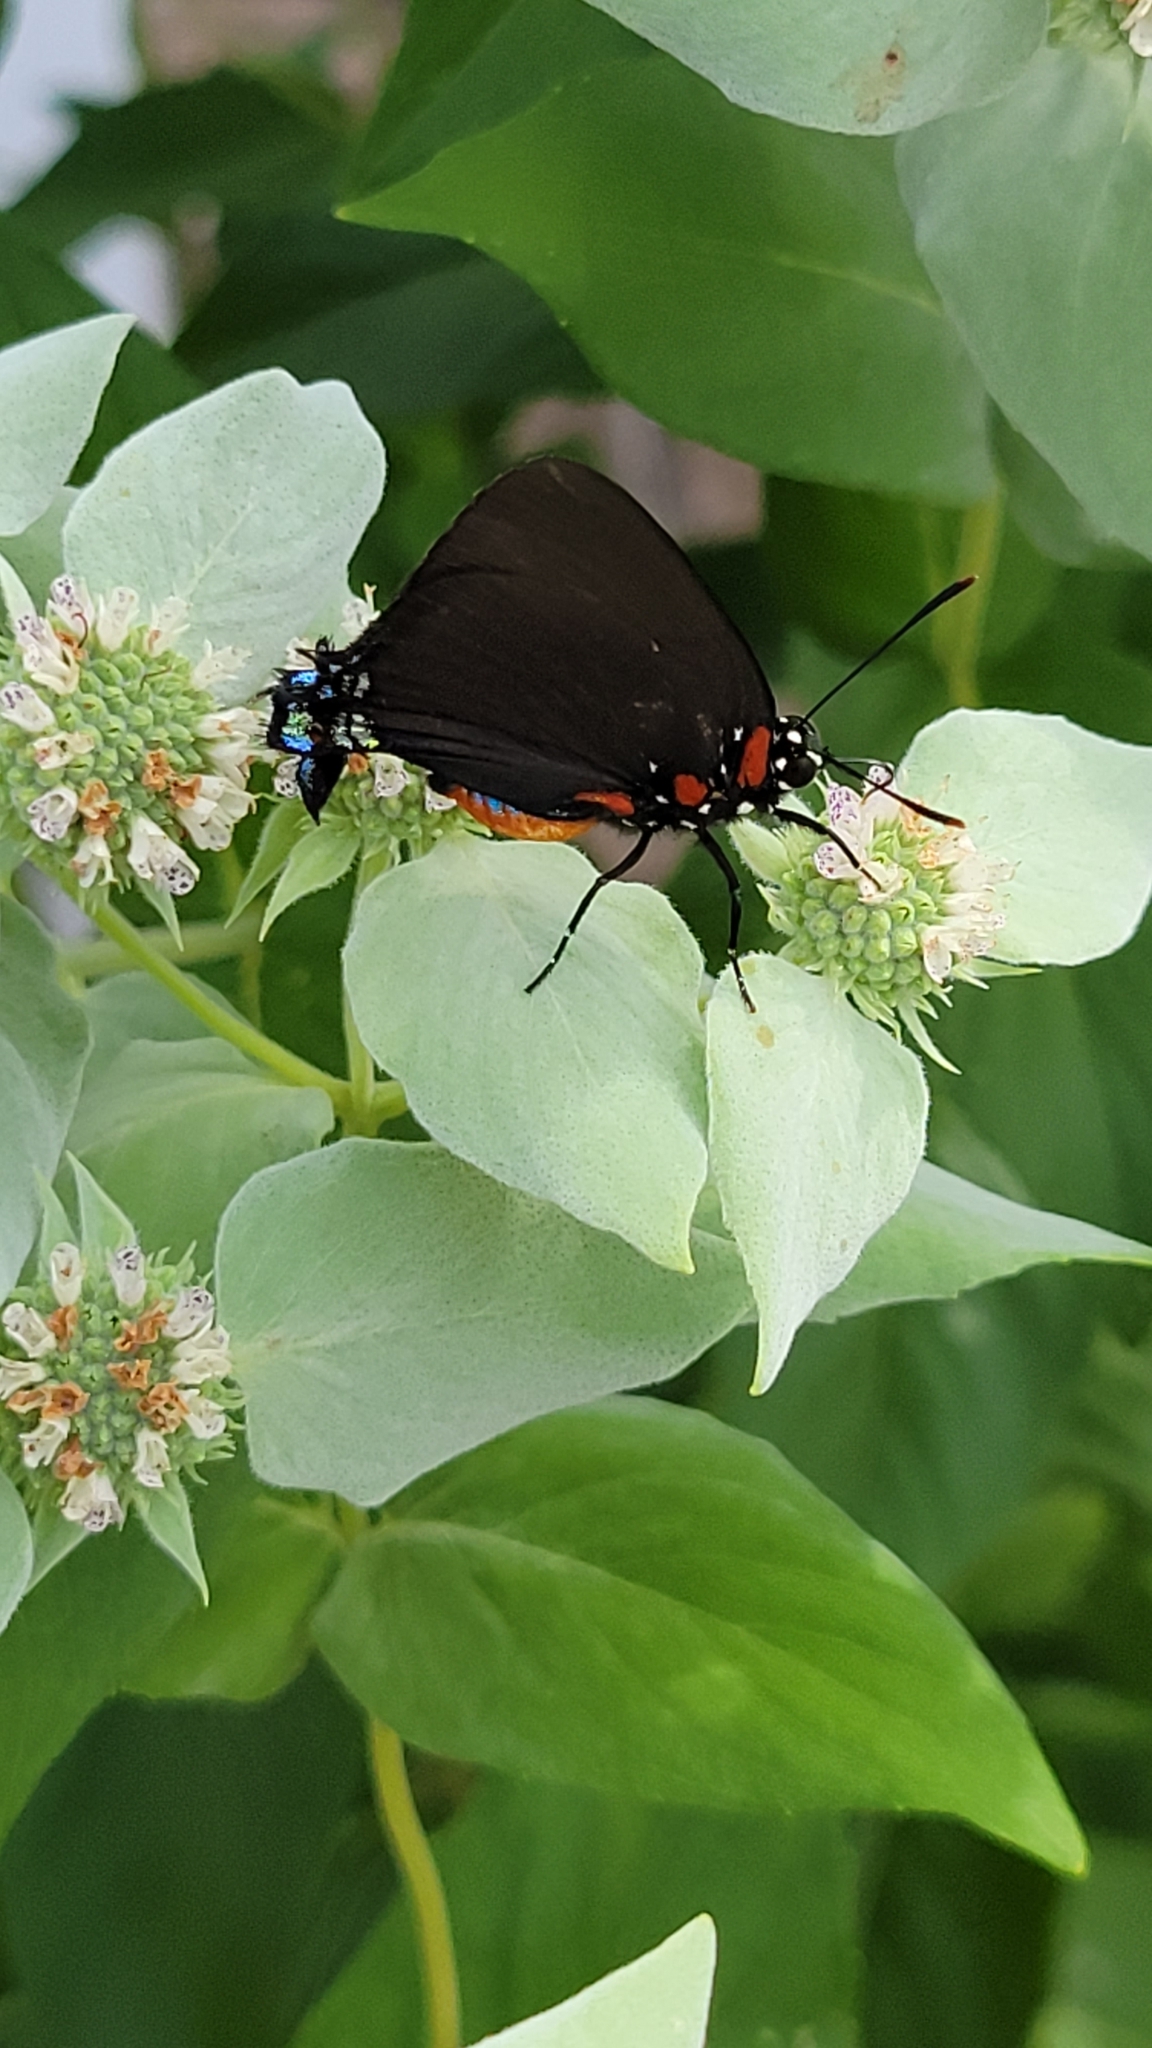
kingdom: Animalia
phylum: Arthropoda
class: Insecta
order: Lepidoptera
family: Lycaenidae
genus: Atlides
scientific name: Atlides halesus
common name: Great purple hairstreak
